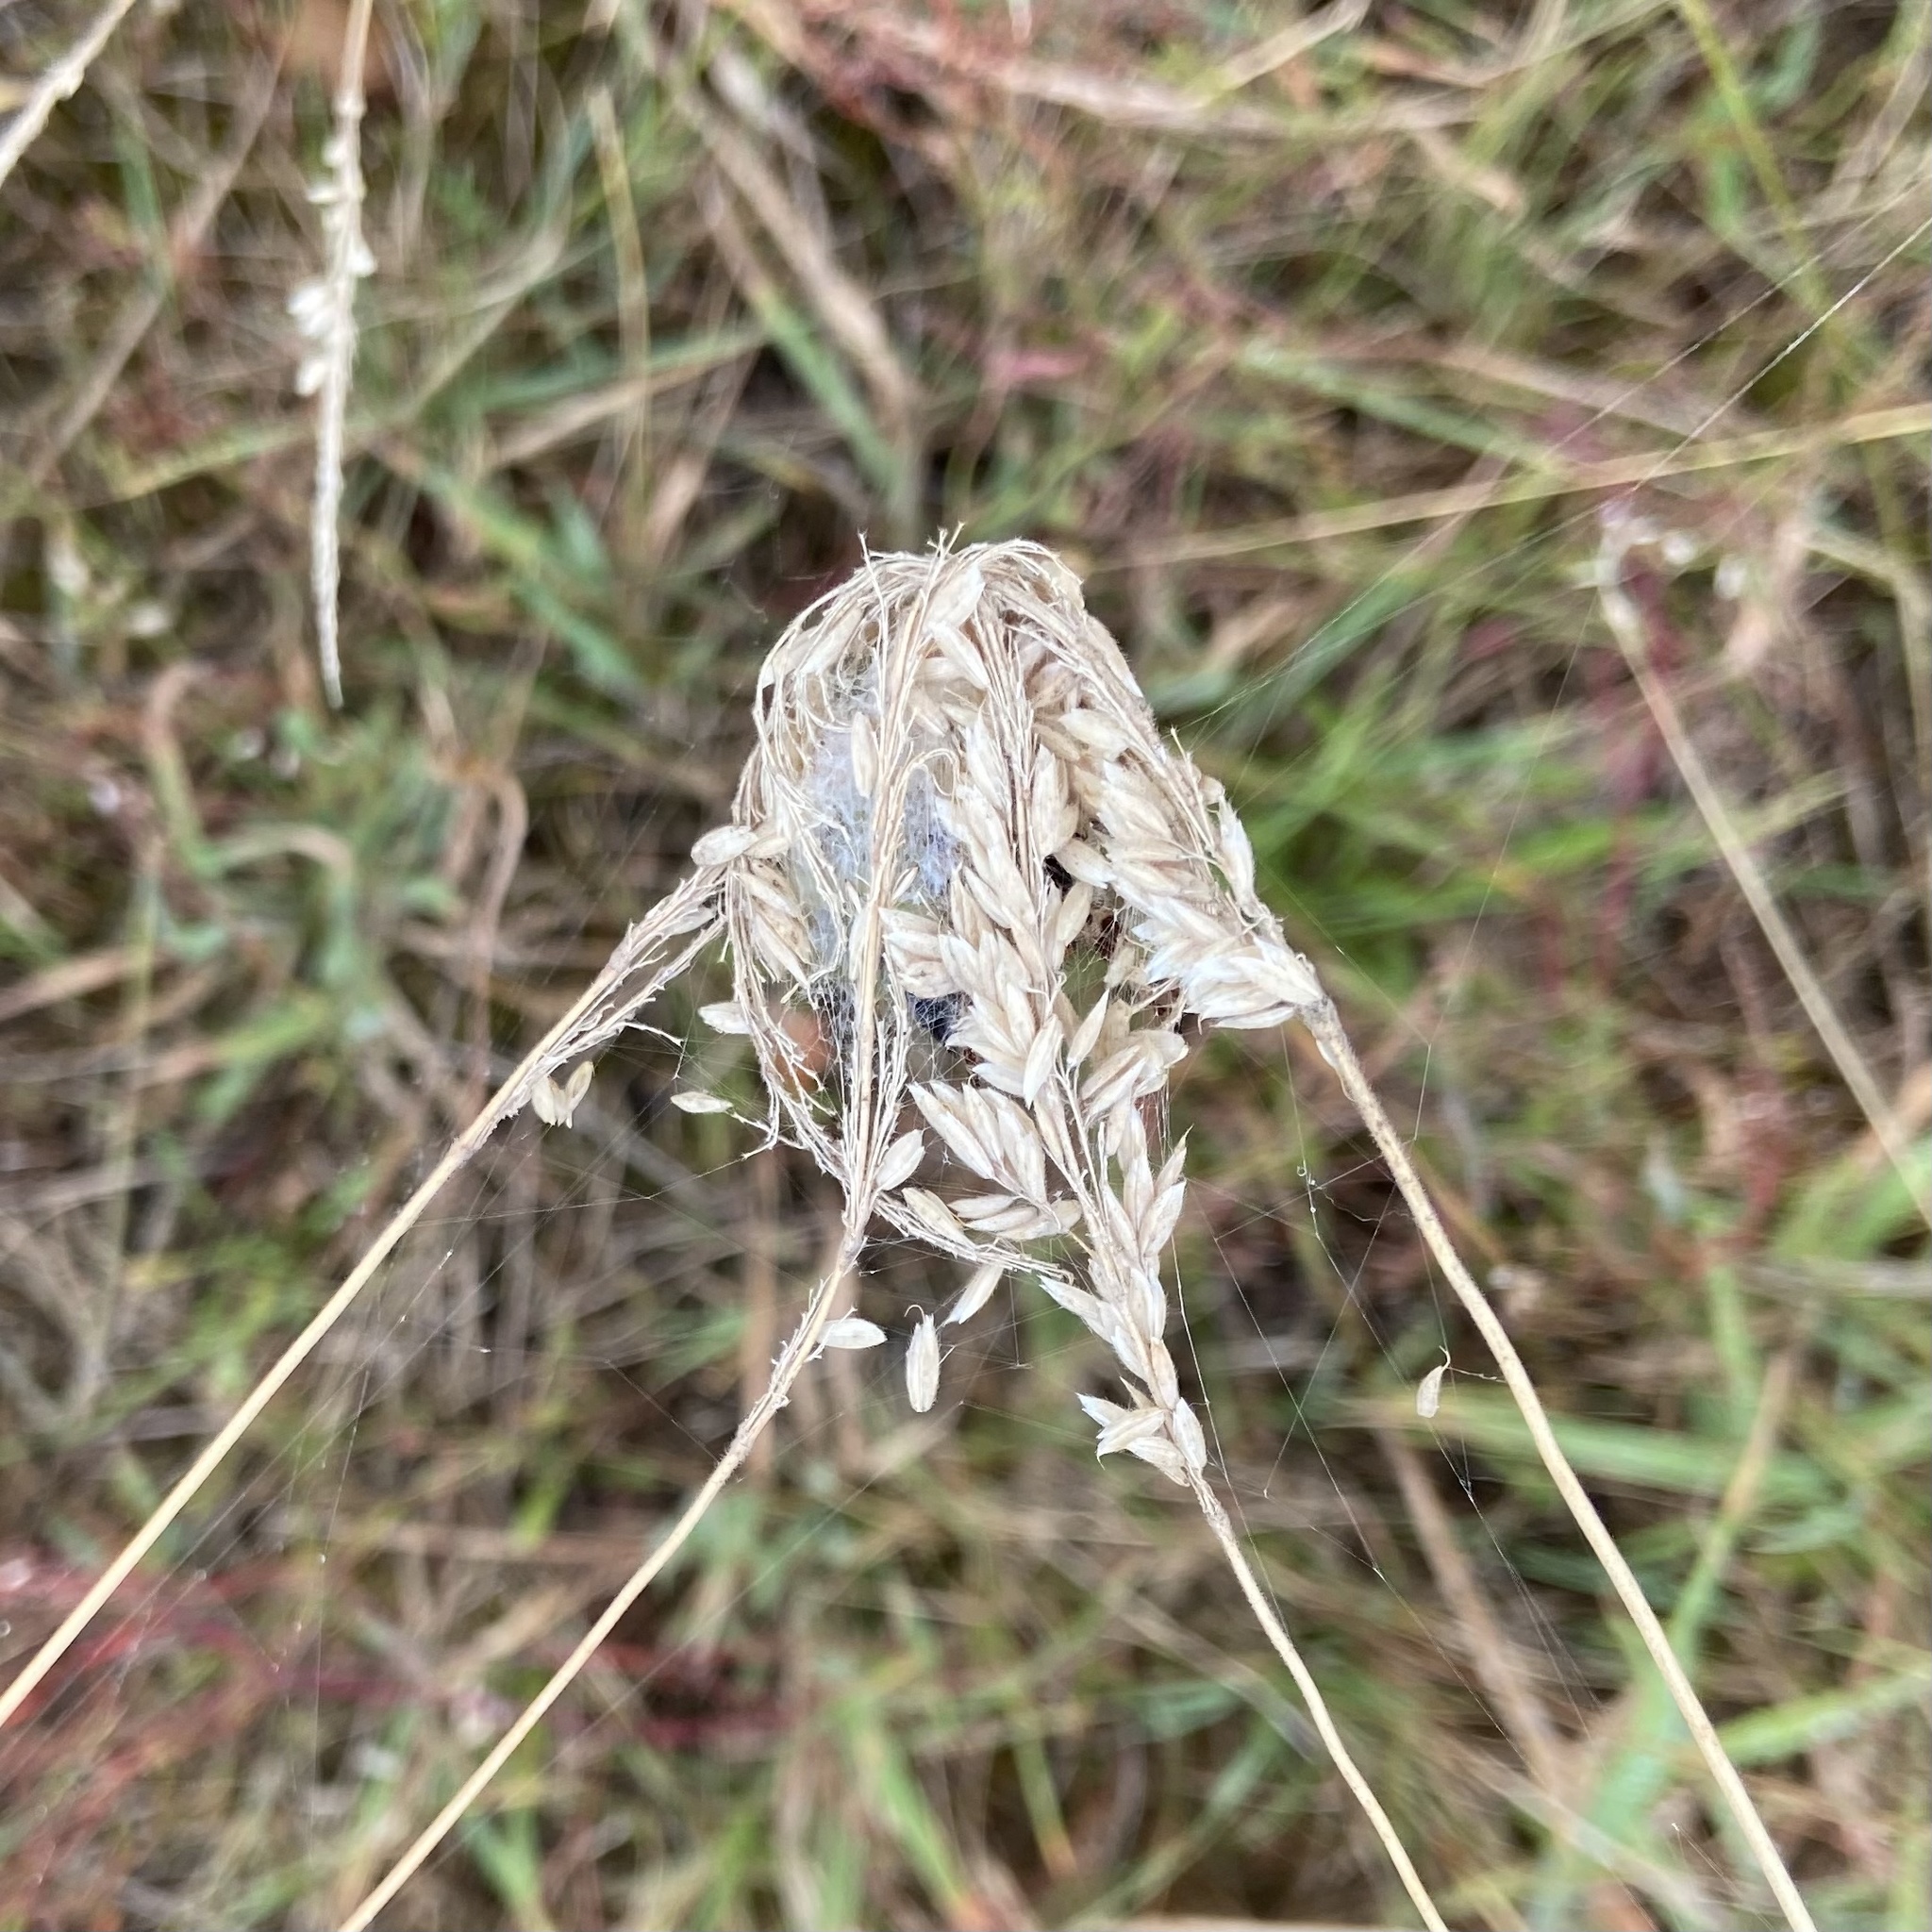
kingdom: Animalia
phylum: Arthropoda
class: Arachnida
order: Araneae
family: Araneidae
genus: Araneus
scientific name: Araneus quadratus
